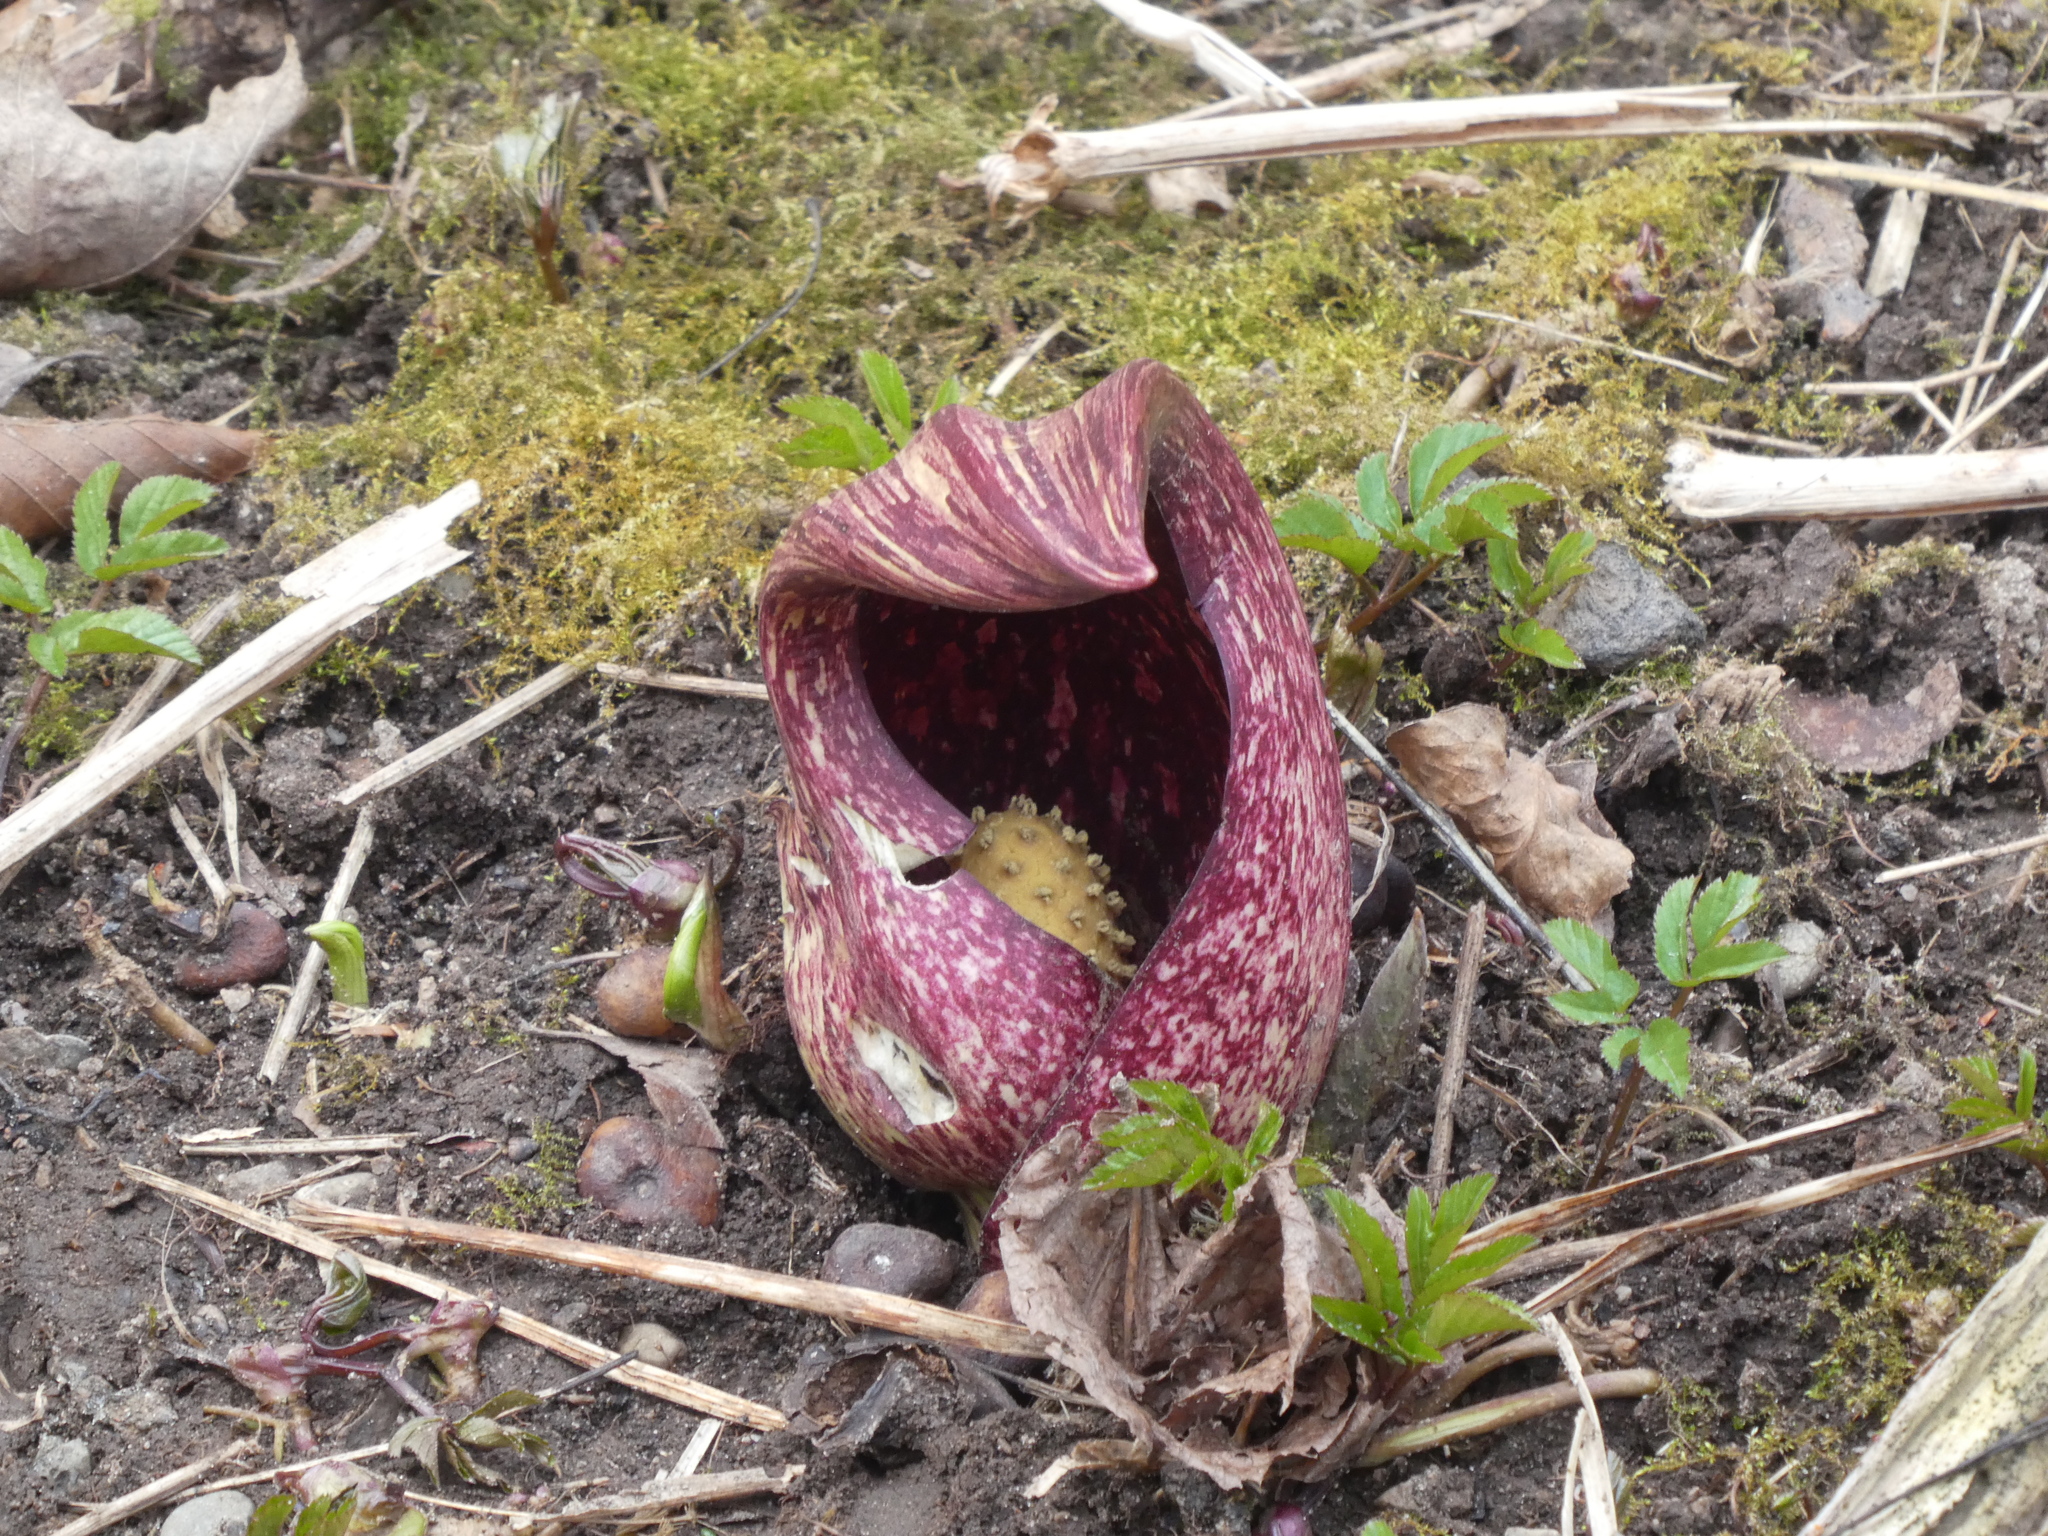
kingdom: Plantae
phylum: Tracheophyta
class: Liliopsida
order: Alismatales
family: Araceae
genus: Symplocarpus
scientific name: Symplocarpus foetidus
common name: Eastern skunk cabbage
